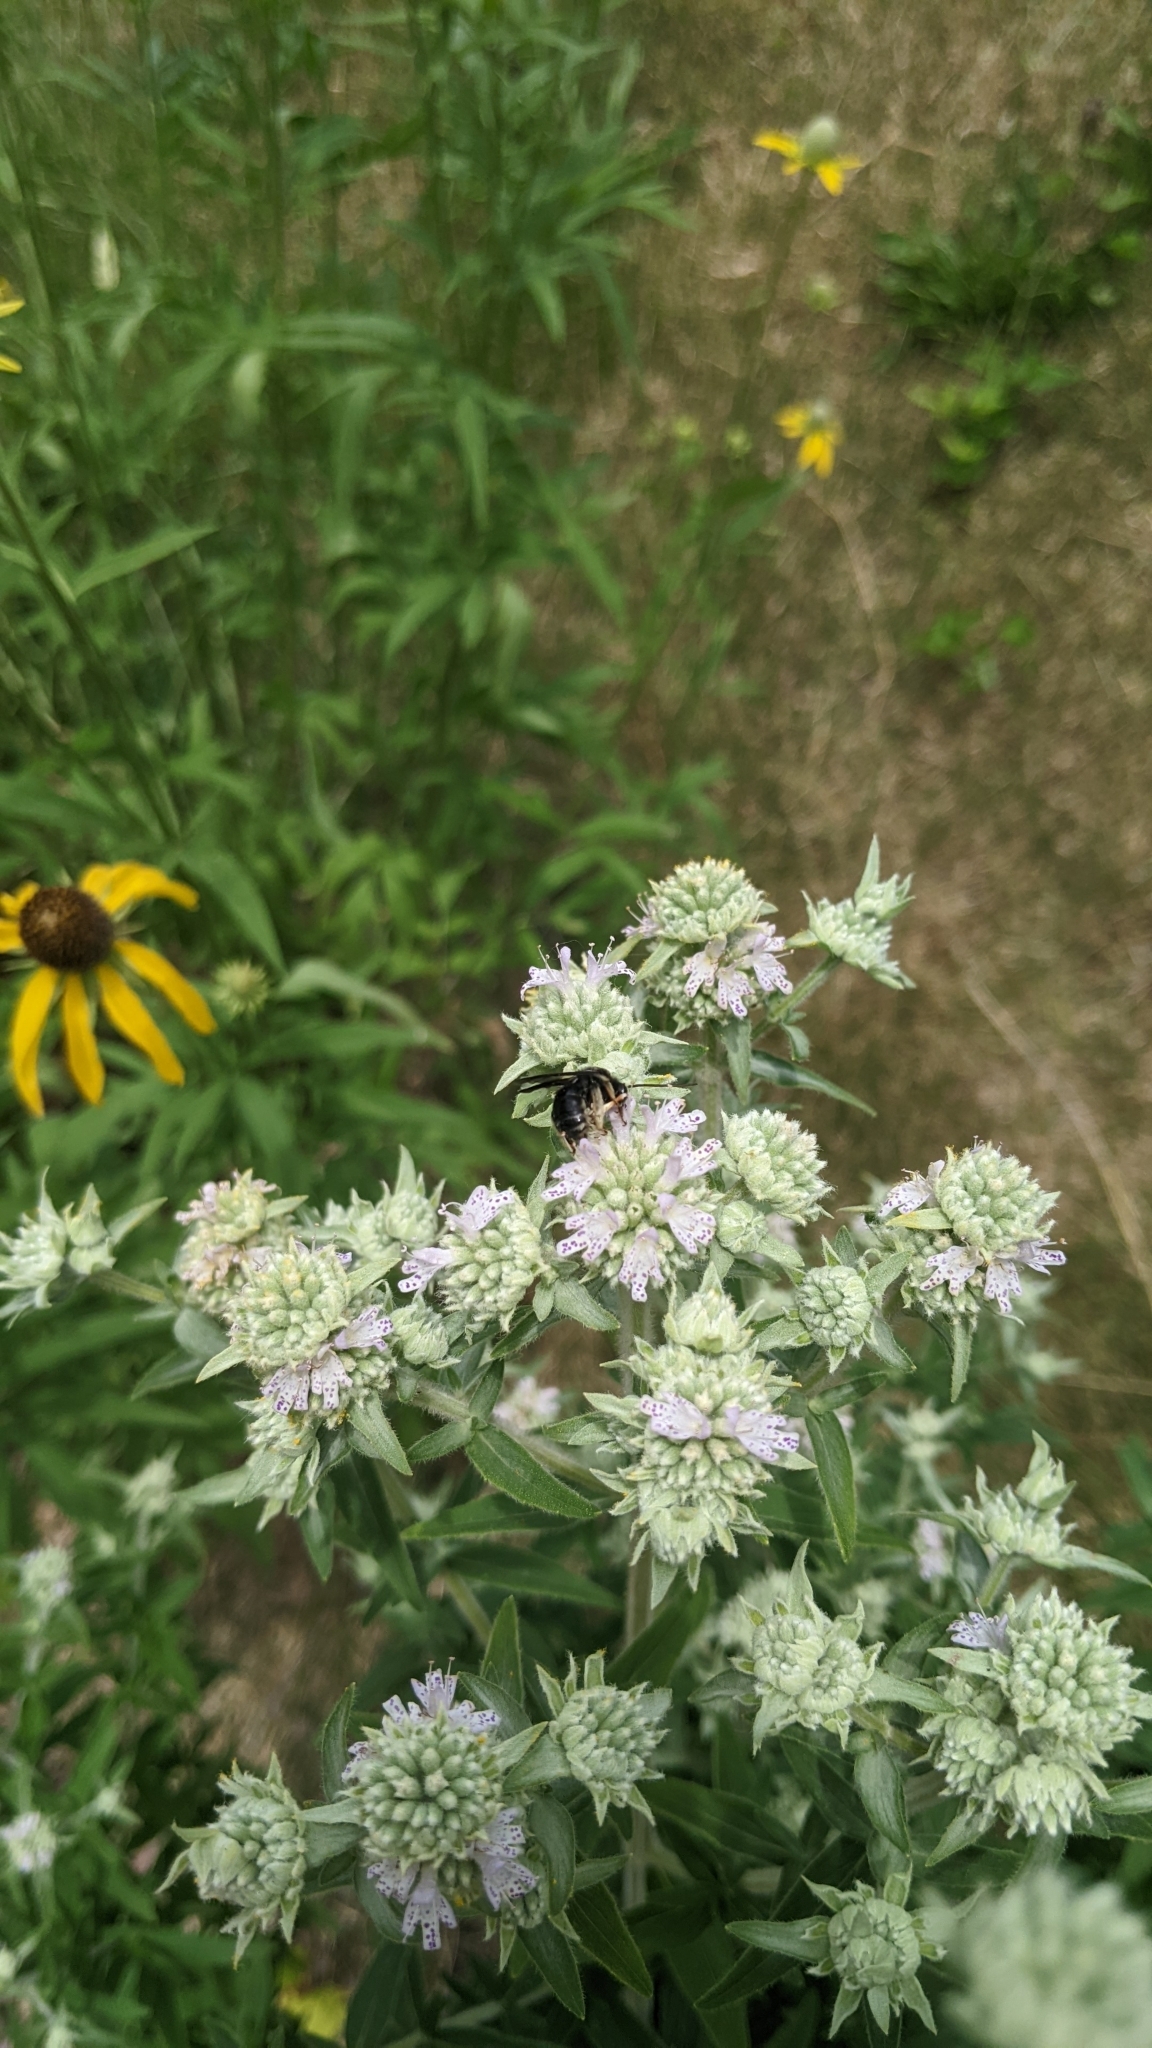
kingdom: Animalia
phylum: Arthropoda
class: Insecta
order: Hymenoptera
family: Apidae
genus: Melissodes
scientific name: Melissodes bimaculatus
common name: Two-spotted long-horned bee
